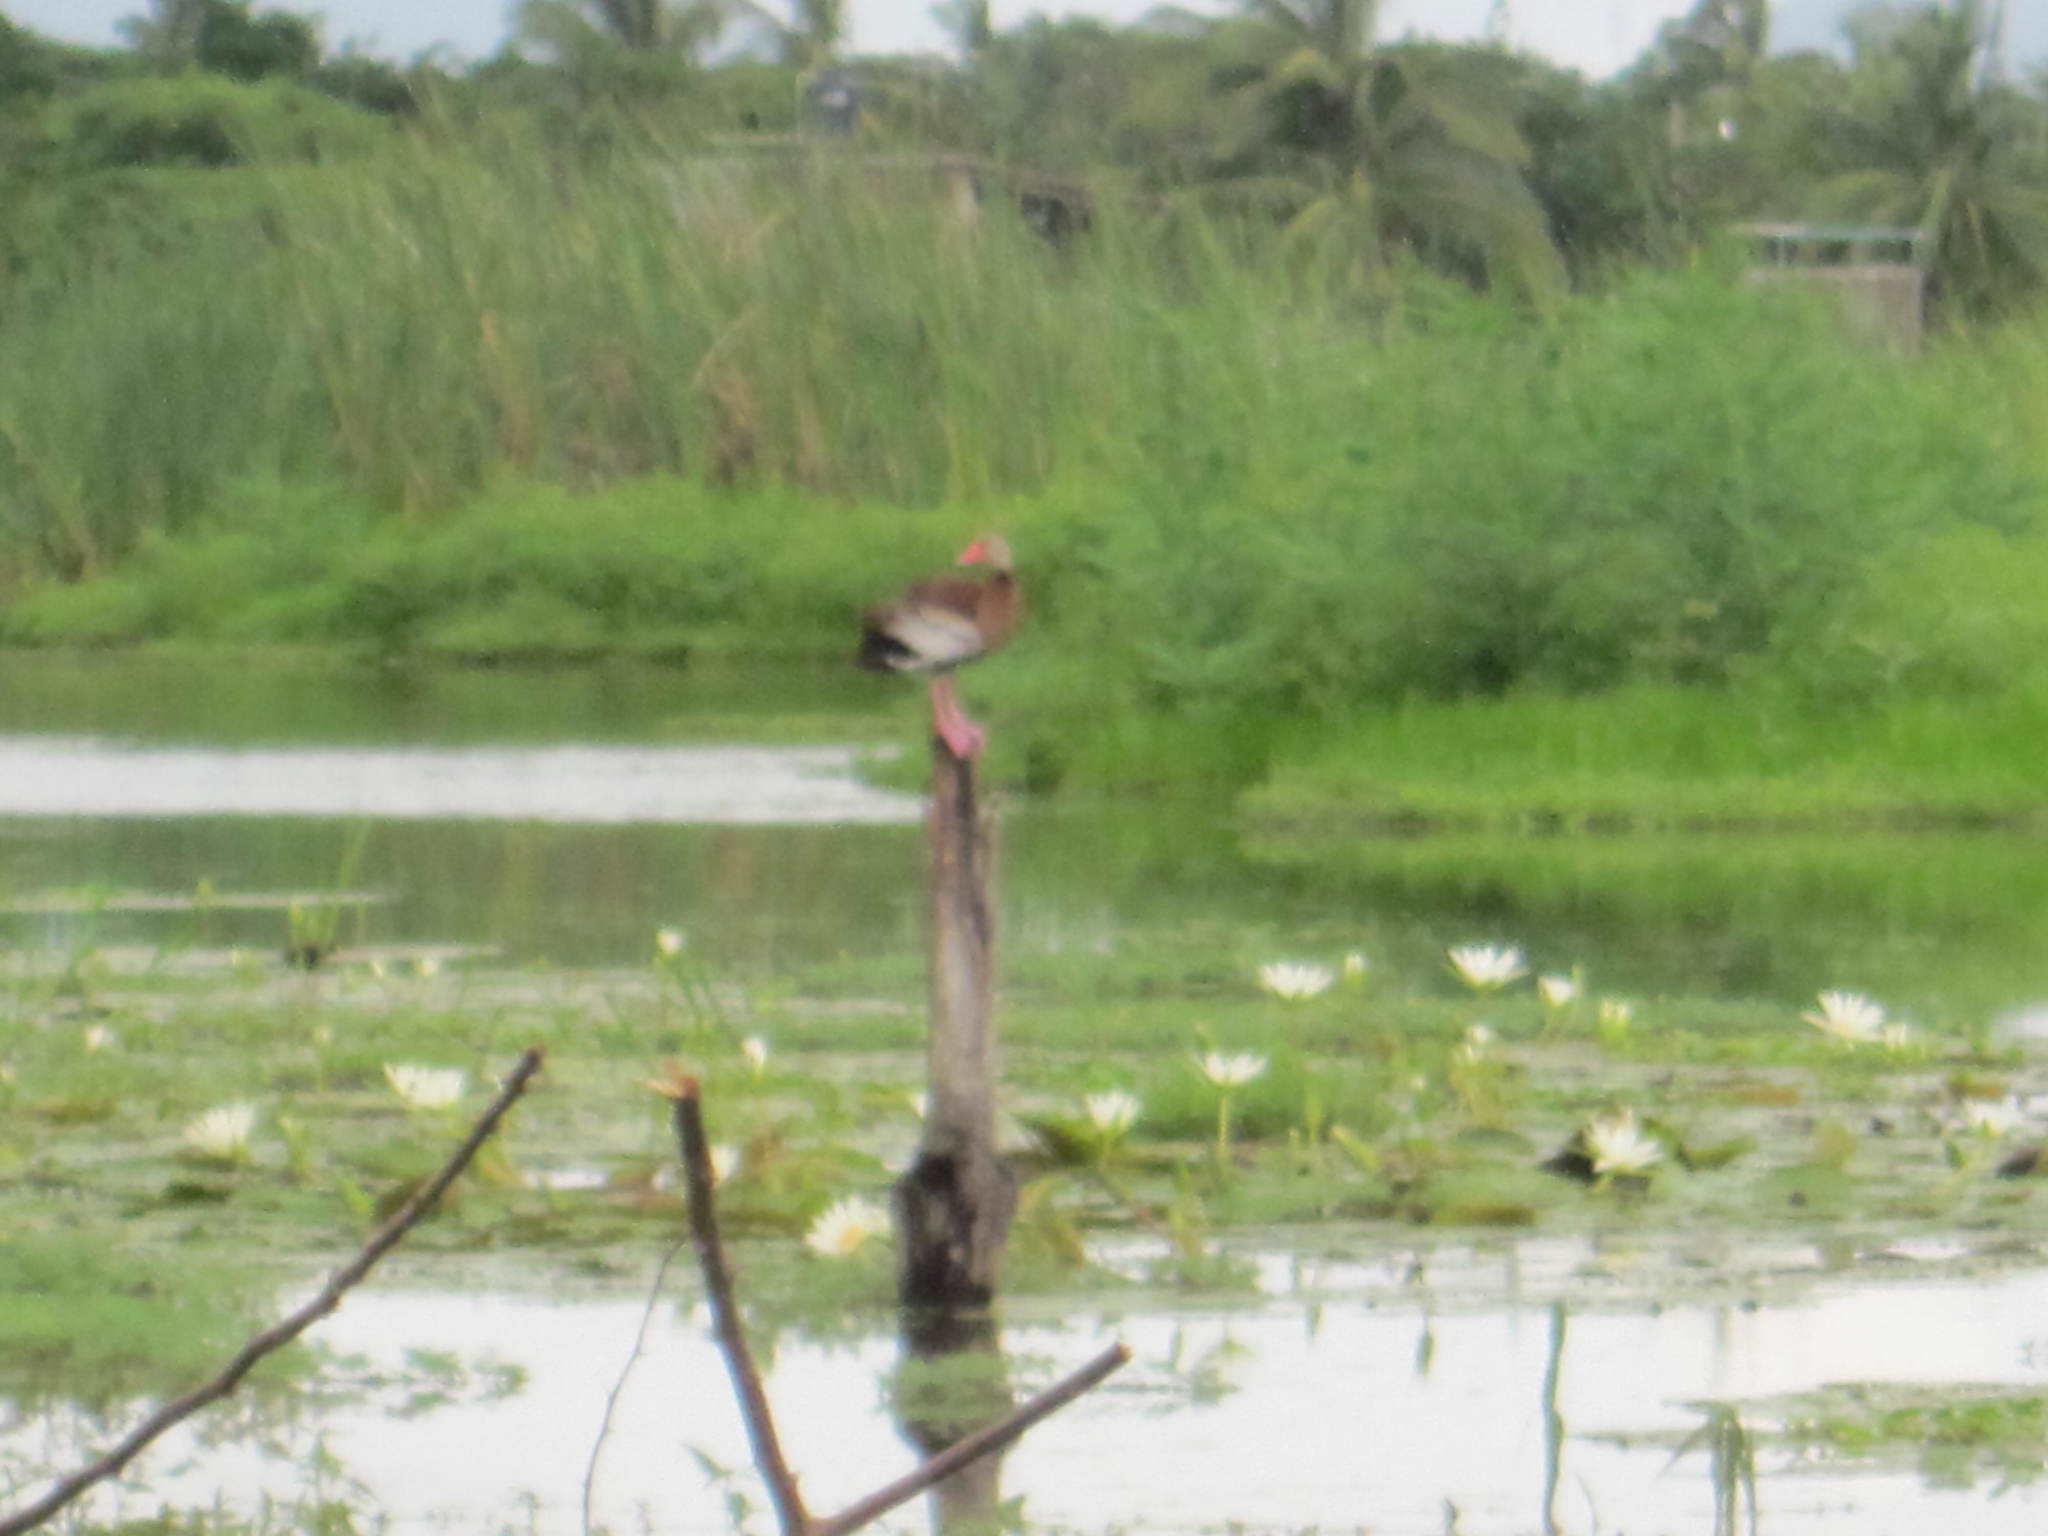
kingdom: Animalia
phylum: Chordata
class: Aves
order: Anseriformes
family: Anatidae
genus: Dendrocygna
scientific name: Dendrocygna autumnalis
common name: Black-bellied whistling duck
